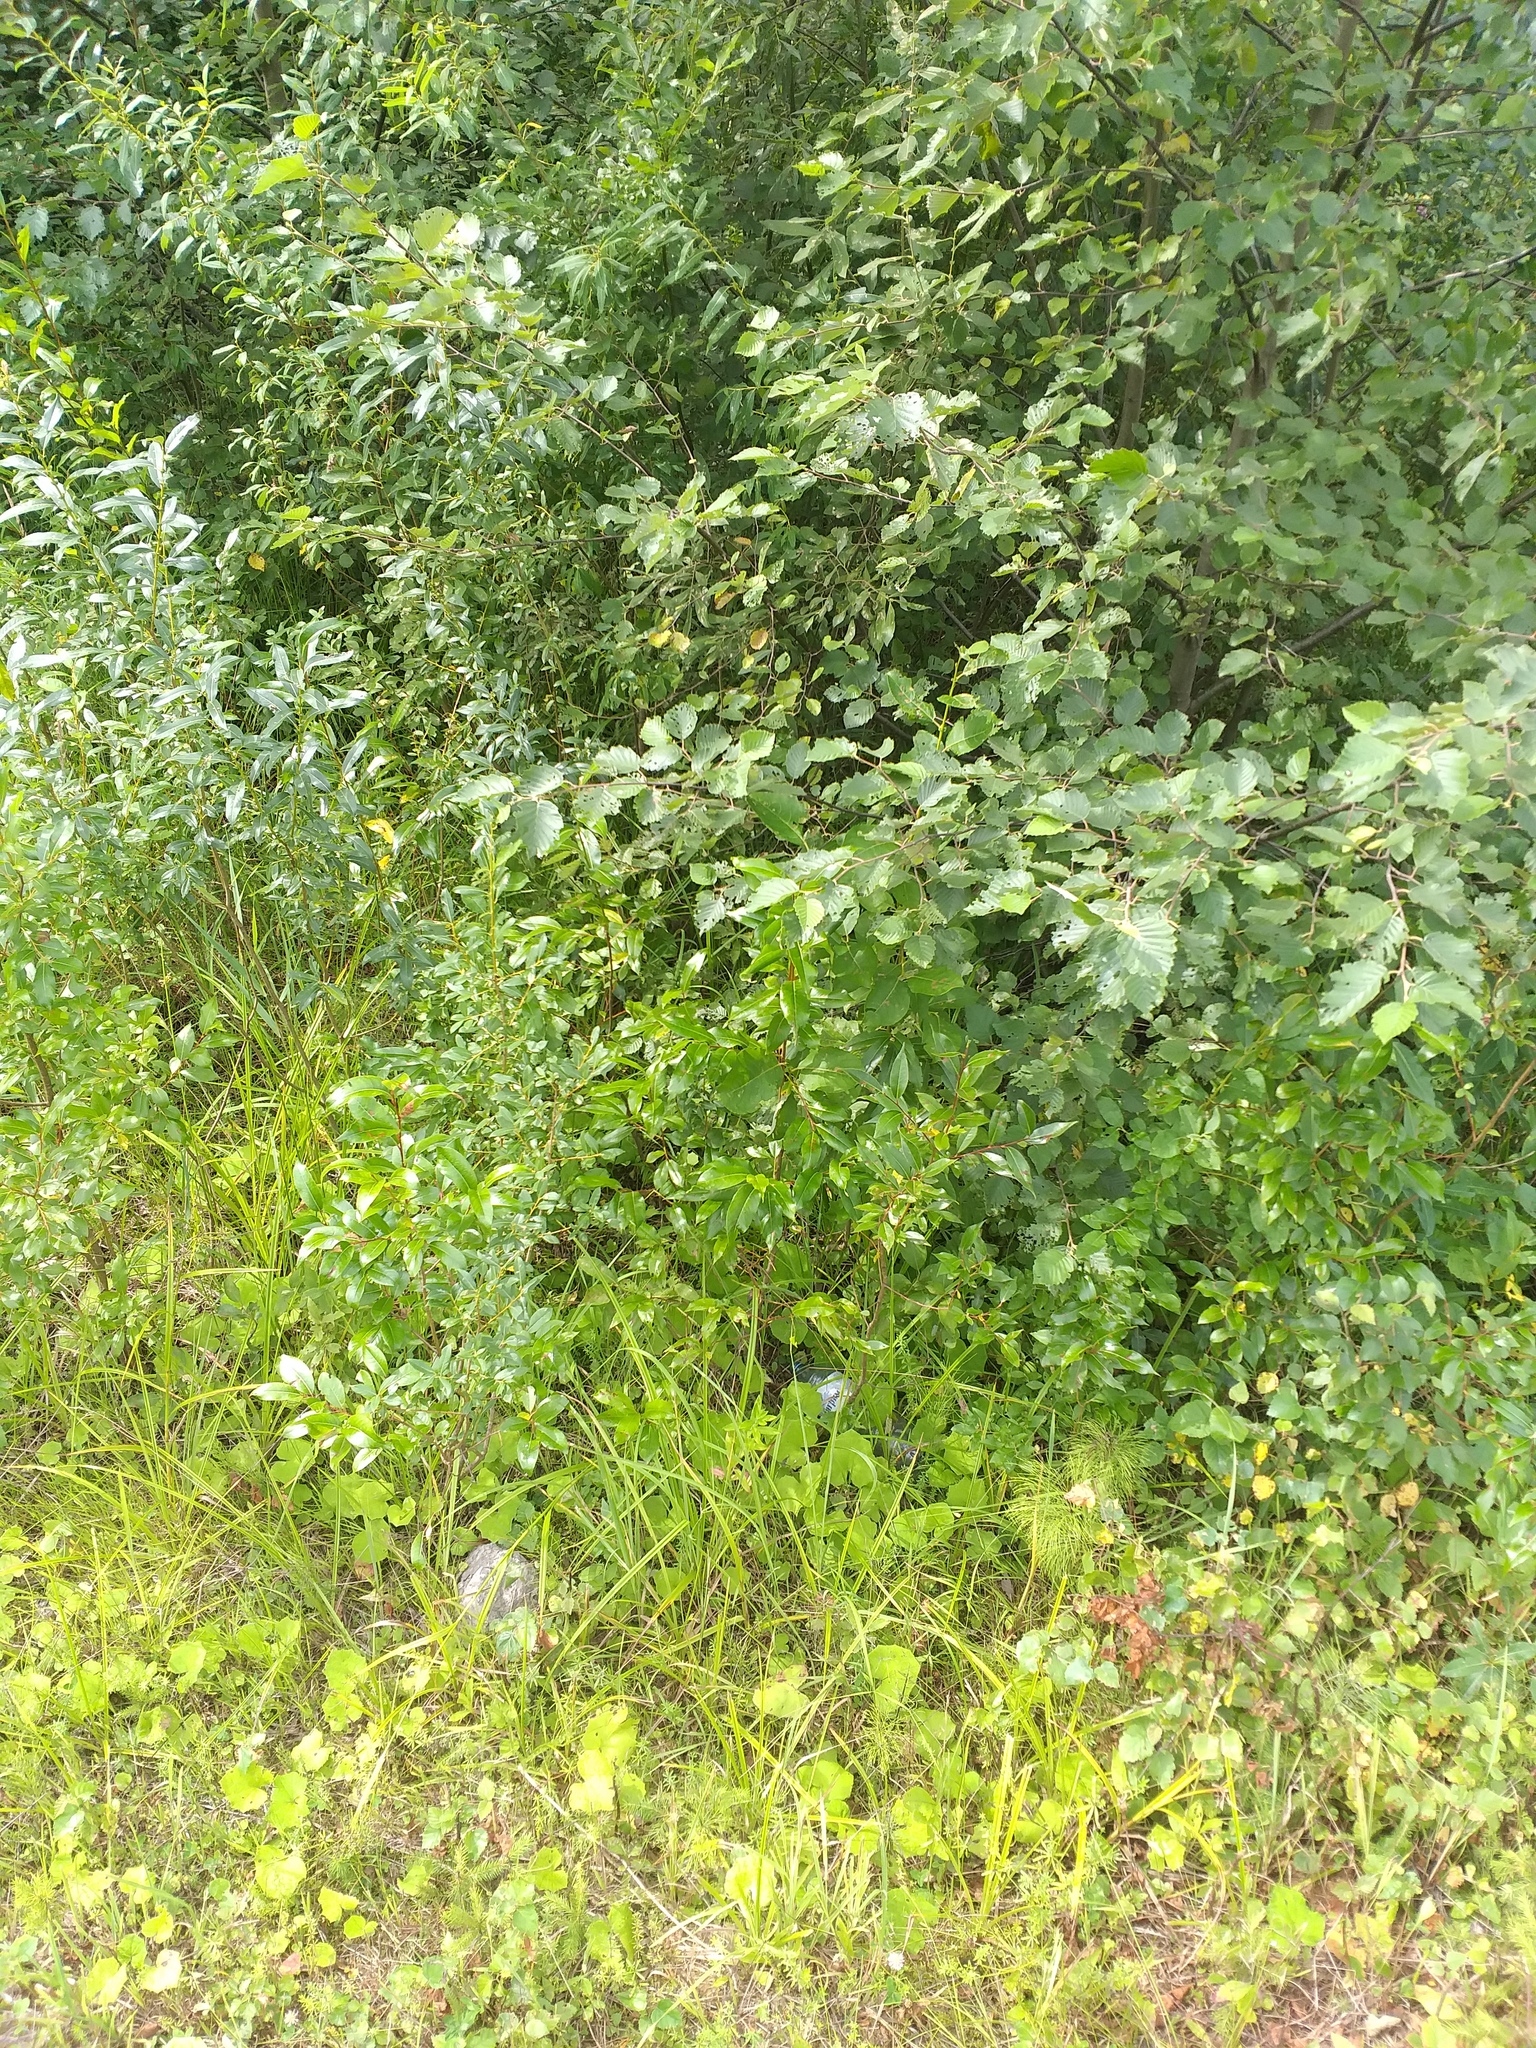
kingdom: Plantae
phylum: Tracheophyta
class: Magnoliopsida
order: Malpighiales
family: Salicaceae
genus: Salix
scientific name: Salix pentandra
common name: Bay willow
